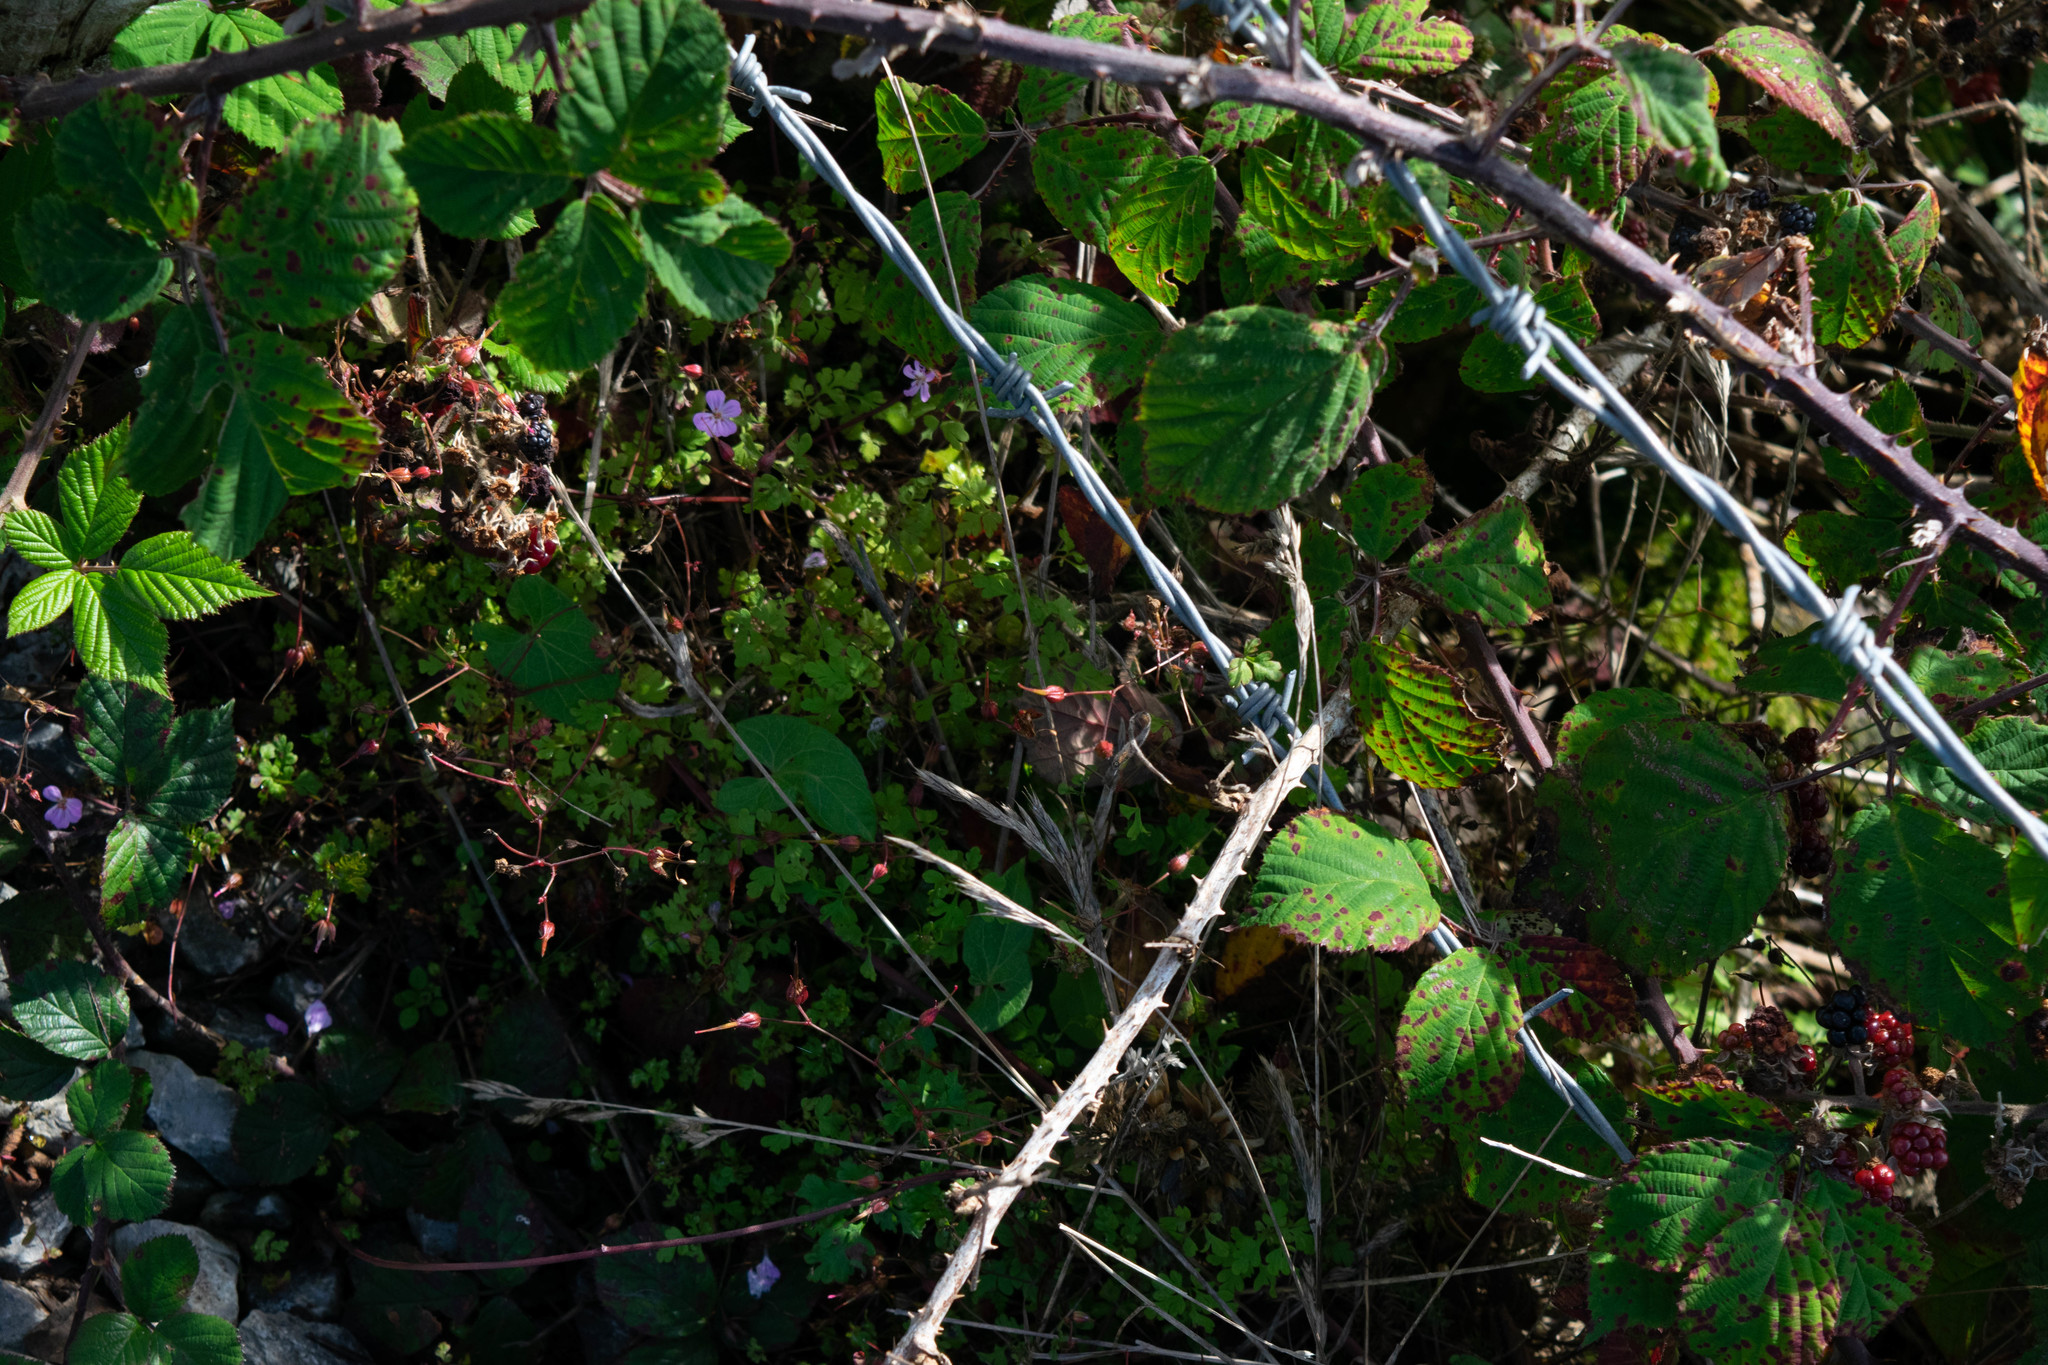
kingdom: Plantae
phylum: Tracheophyta
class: Magnoliopsida
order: Geraniales
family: Geraniaceae
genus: Geranium
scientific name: Geranium robertianum
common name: Herb-robert
